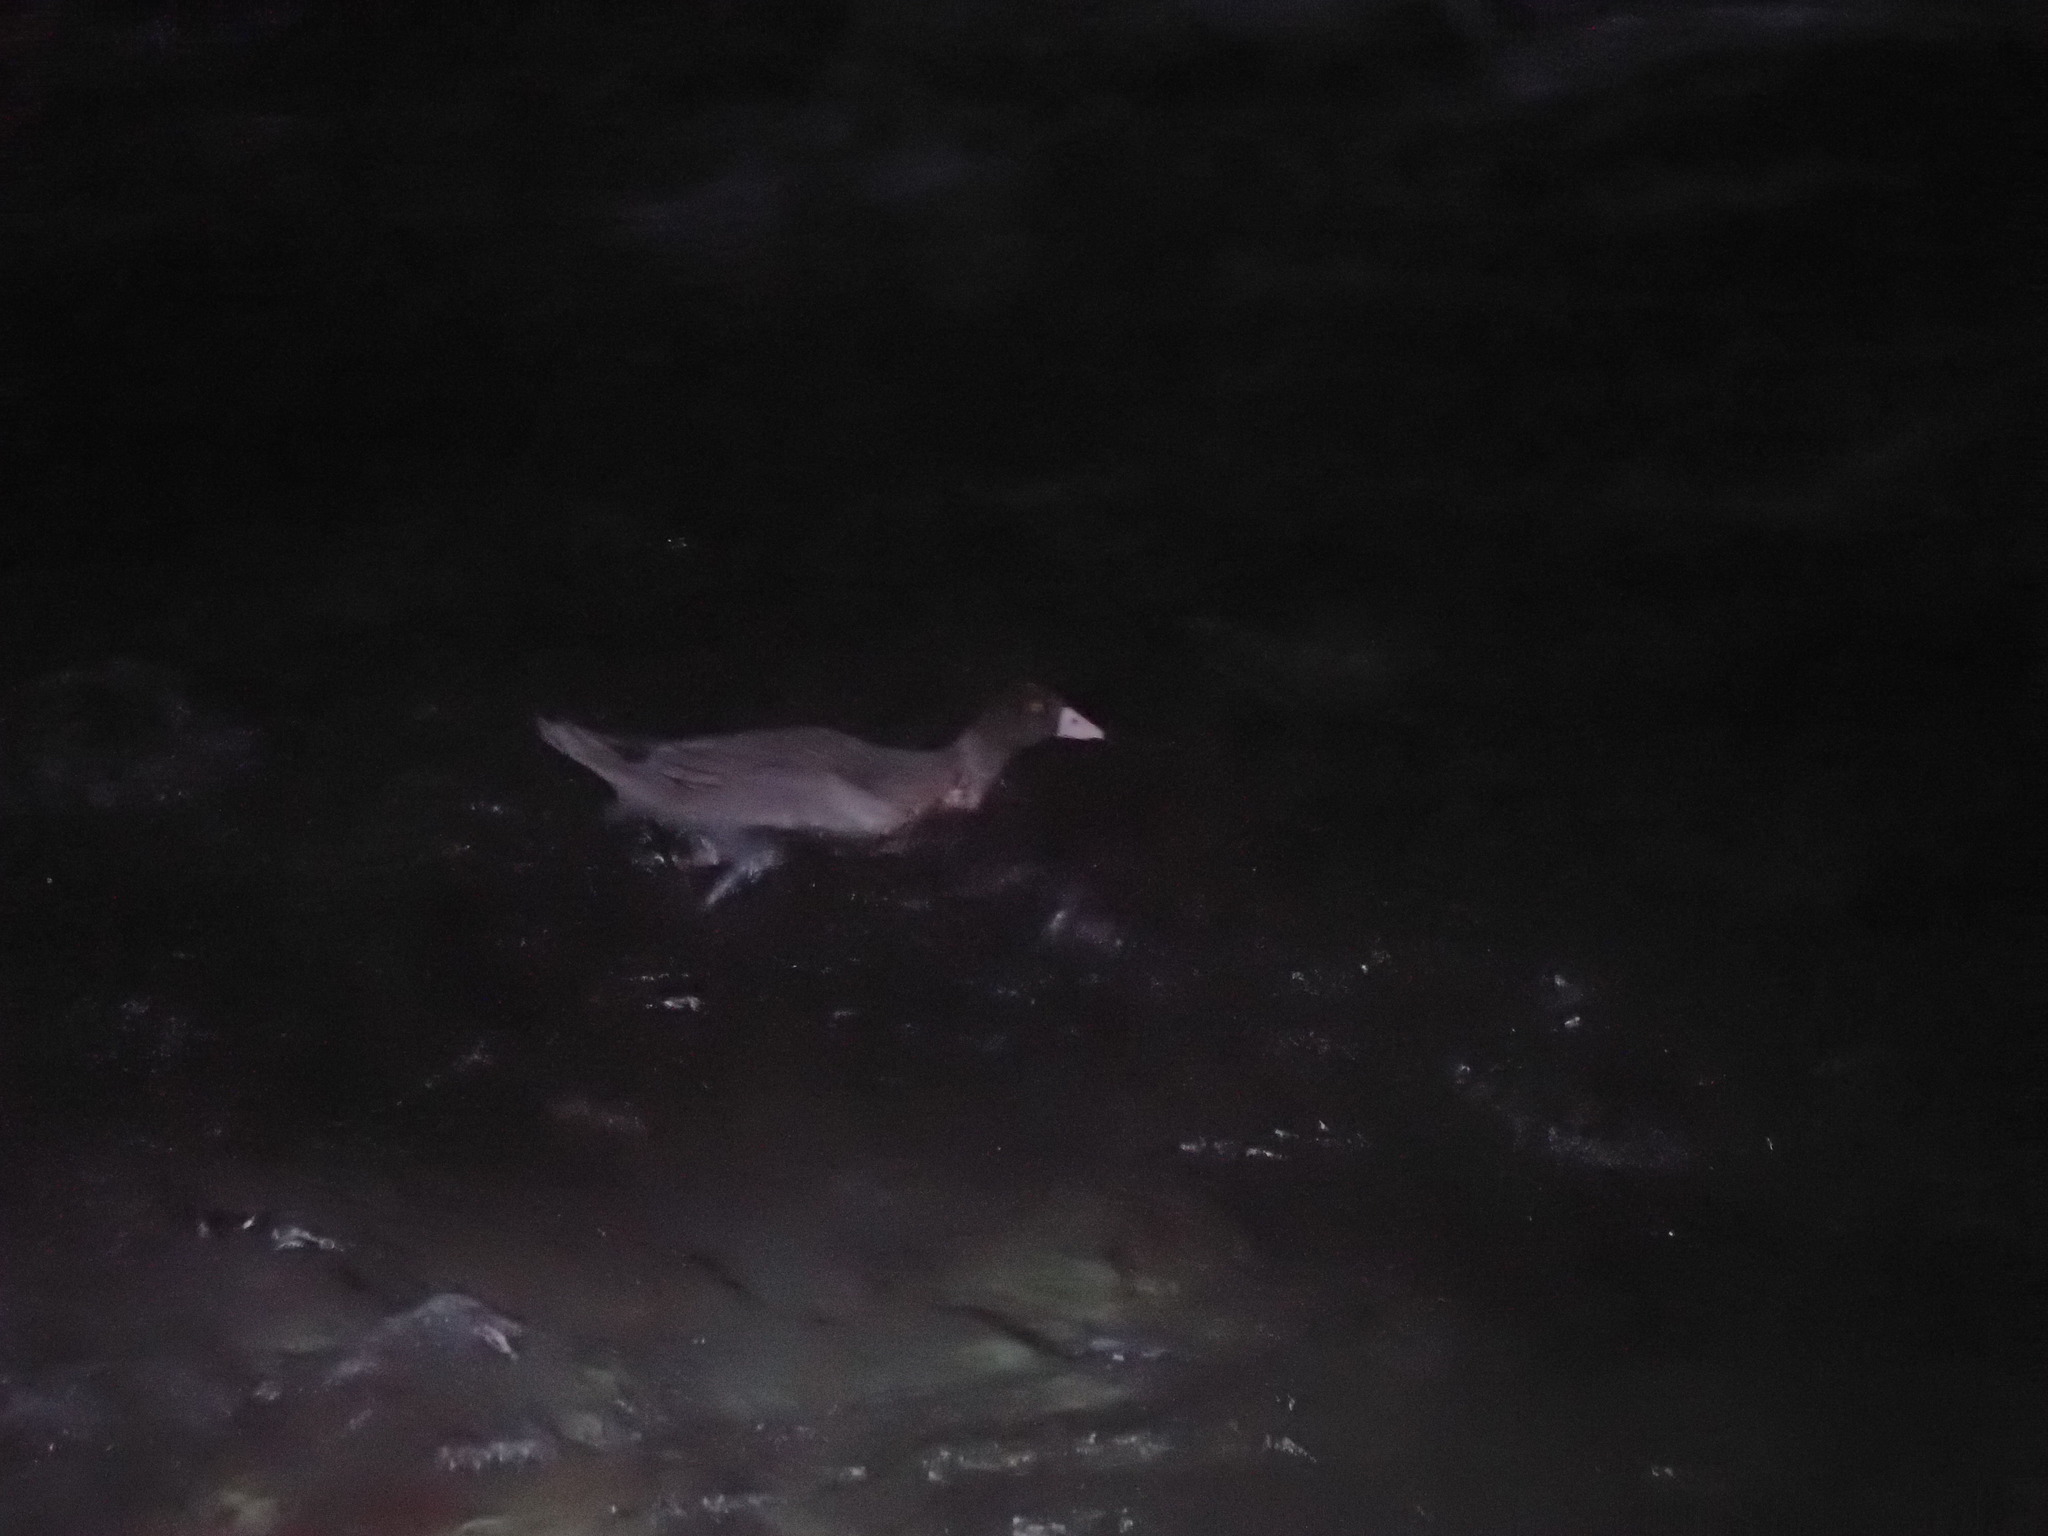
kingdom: Animalia
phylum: Chordata
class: Aves
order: Anseriformes
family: Anatidae
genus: Hymenolaimus
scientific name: Hymenolaimus malacorhynchos
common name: Blue duck
